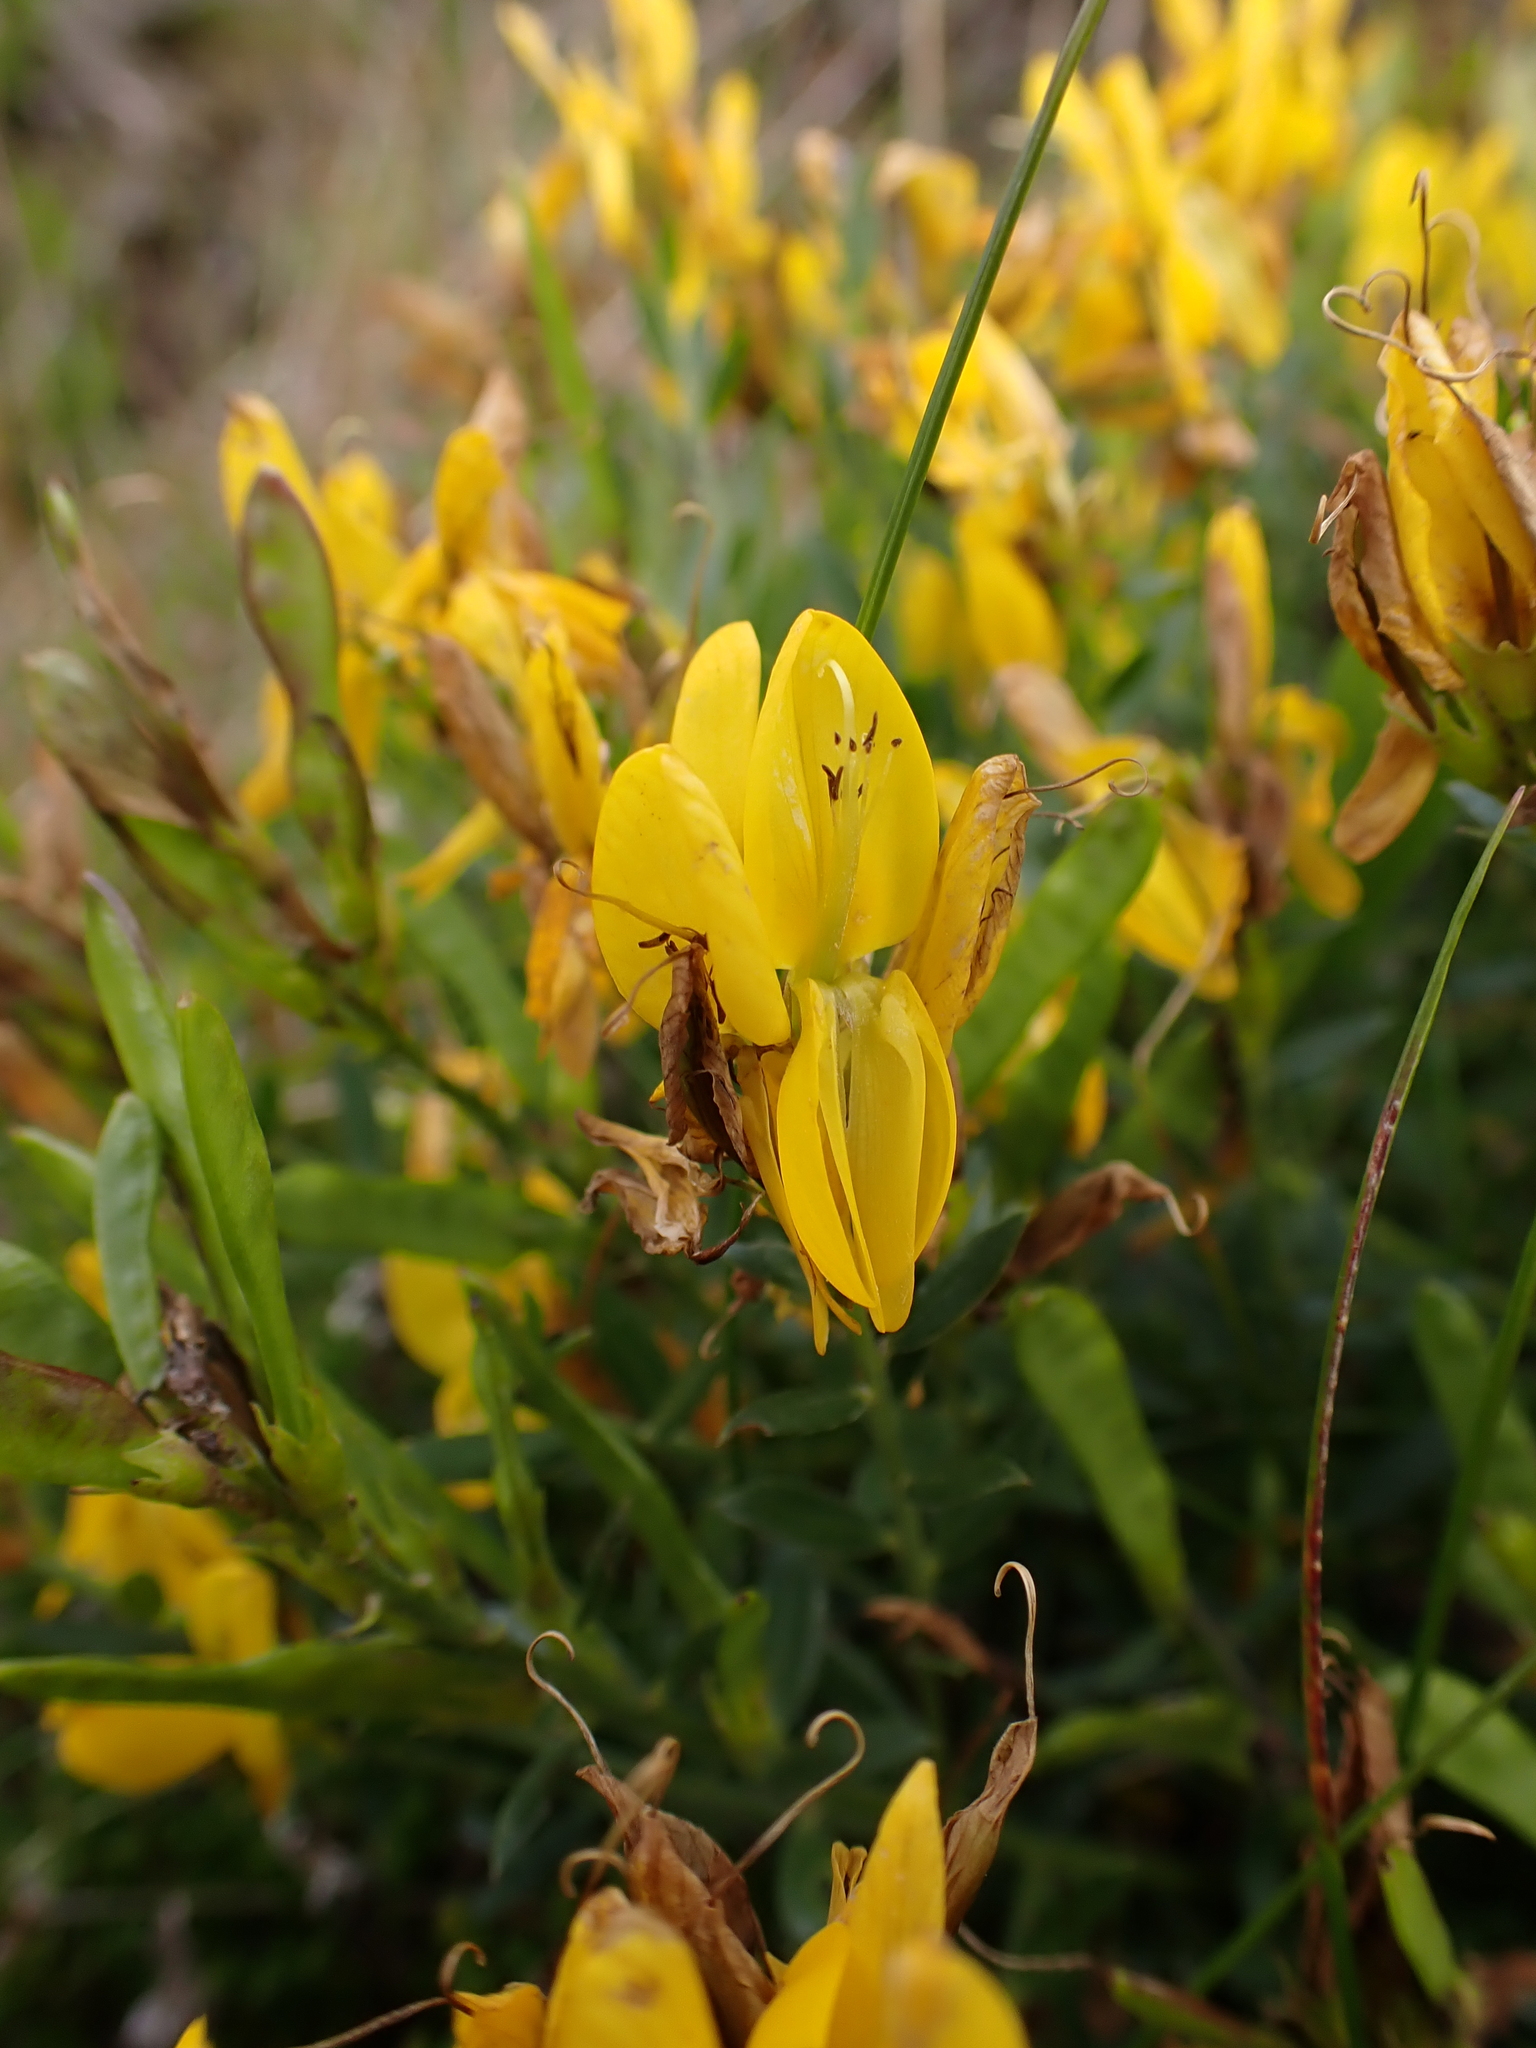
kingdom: Plantae
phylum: Tracheophyta
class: Magnoliopsida
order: Fabales
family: Fabaceae
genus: Genista
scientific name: Genista tinctoria
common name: Dyer's greenweed
